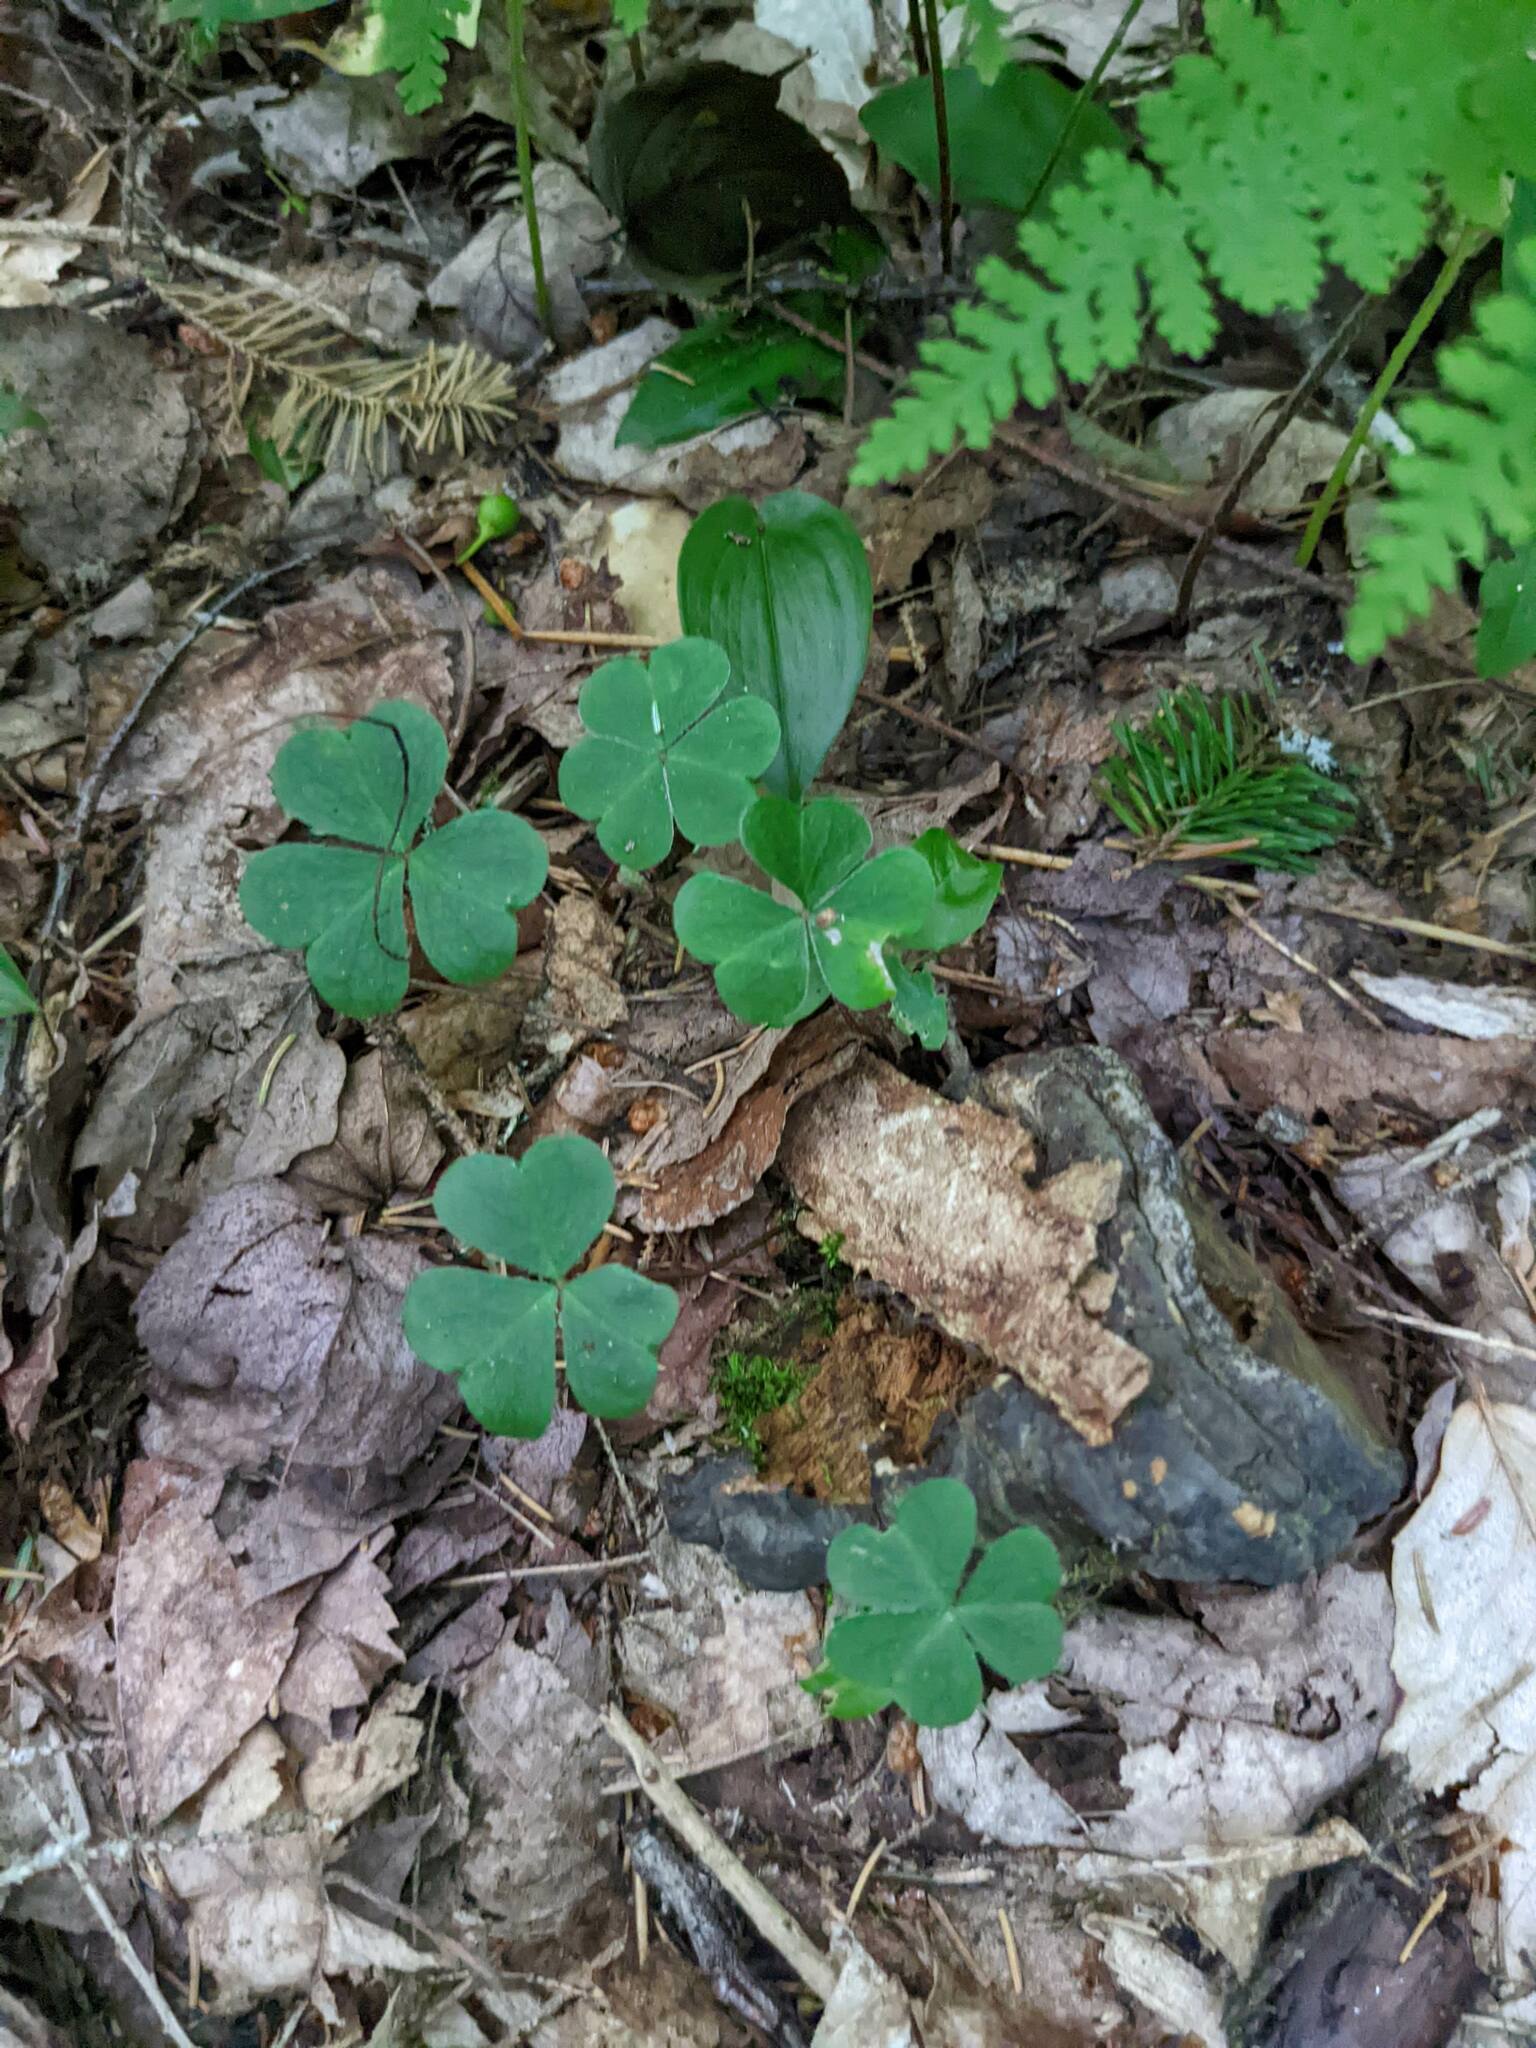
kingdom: Plantae
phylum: Tracheophyta
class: Magnoliopsida
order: Oxalidales
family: Oxalidaceae
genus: Oxalis
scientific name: Oxalis montana
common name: American wood-sorrel
